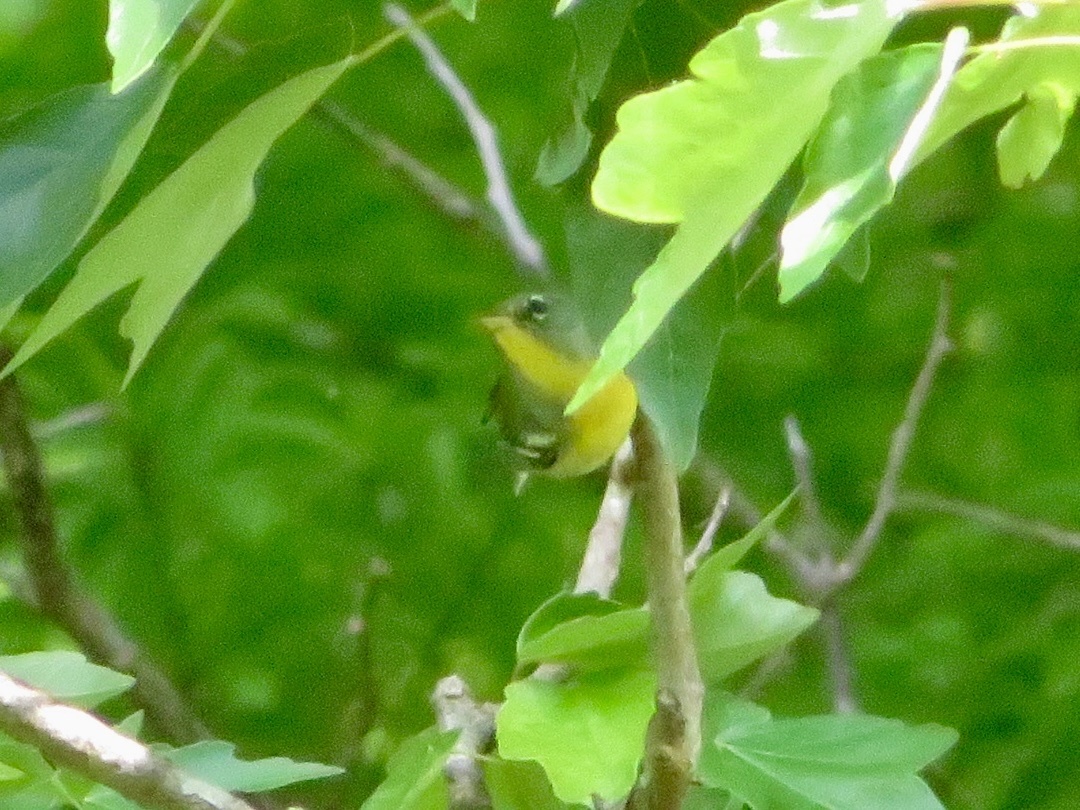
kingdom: Animalia
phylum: Chordata
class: Aves
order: Passeriformes
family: Parulidae
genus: Setophaga
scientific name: Setophaga americana
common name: Northern parula
